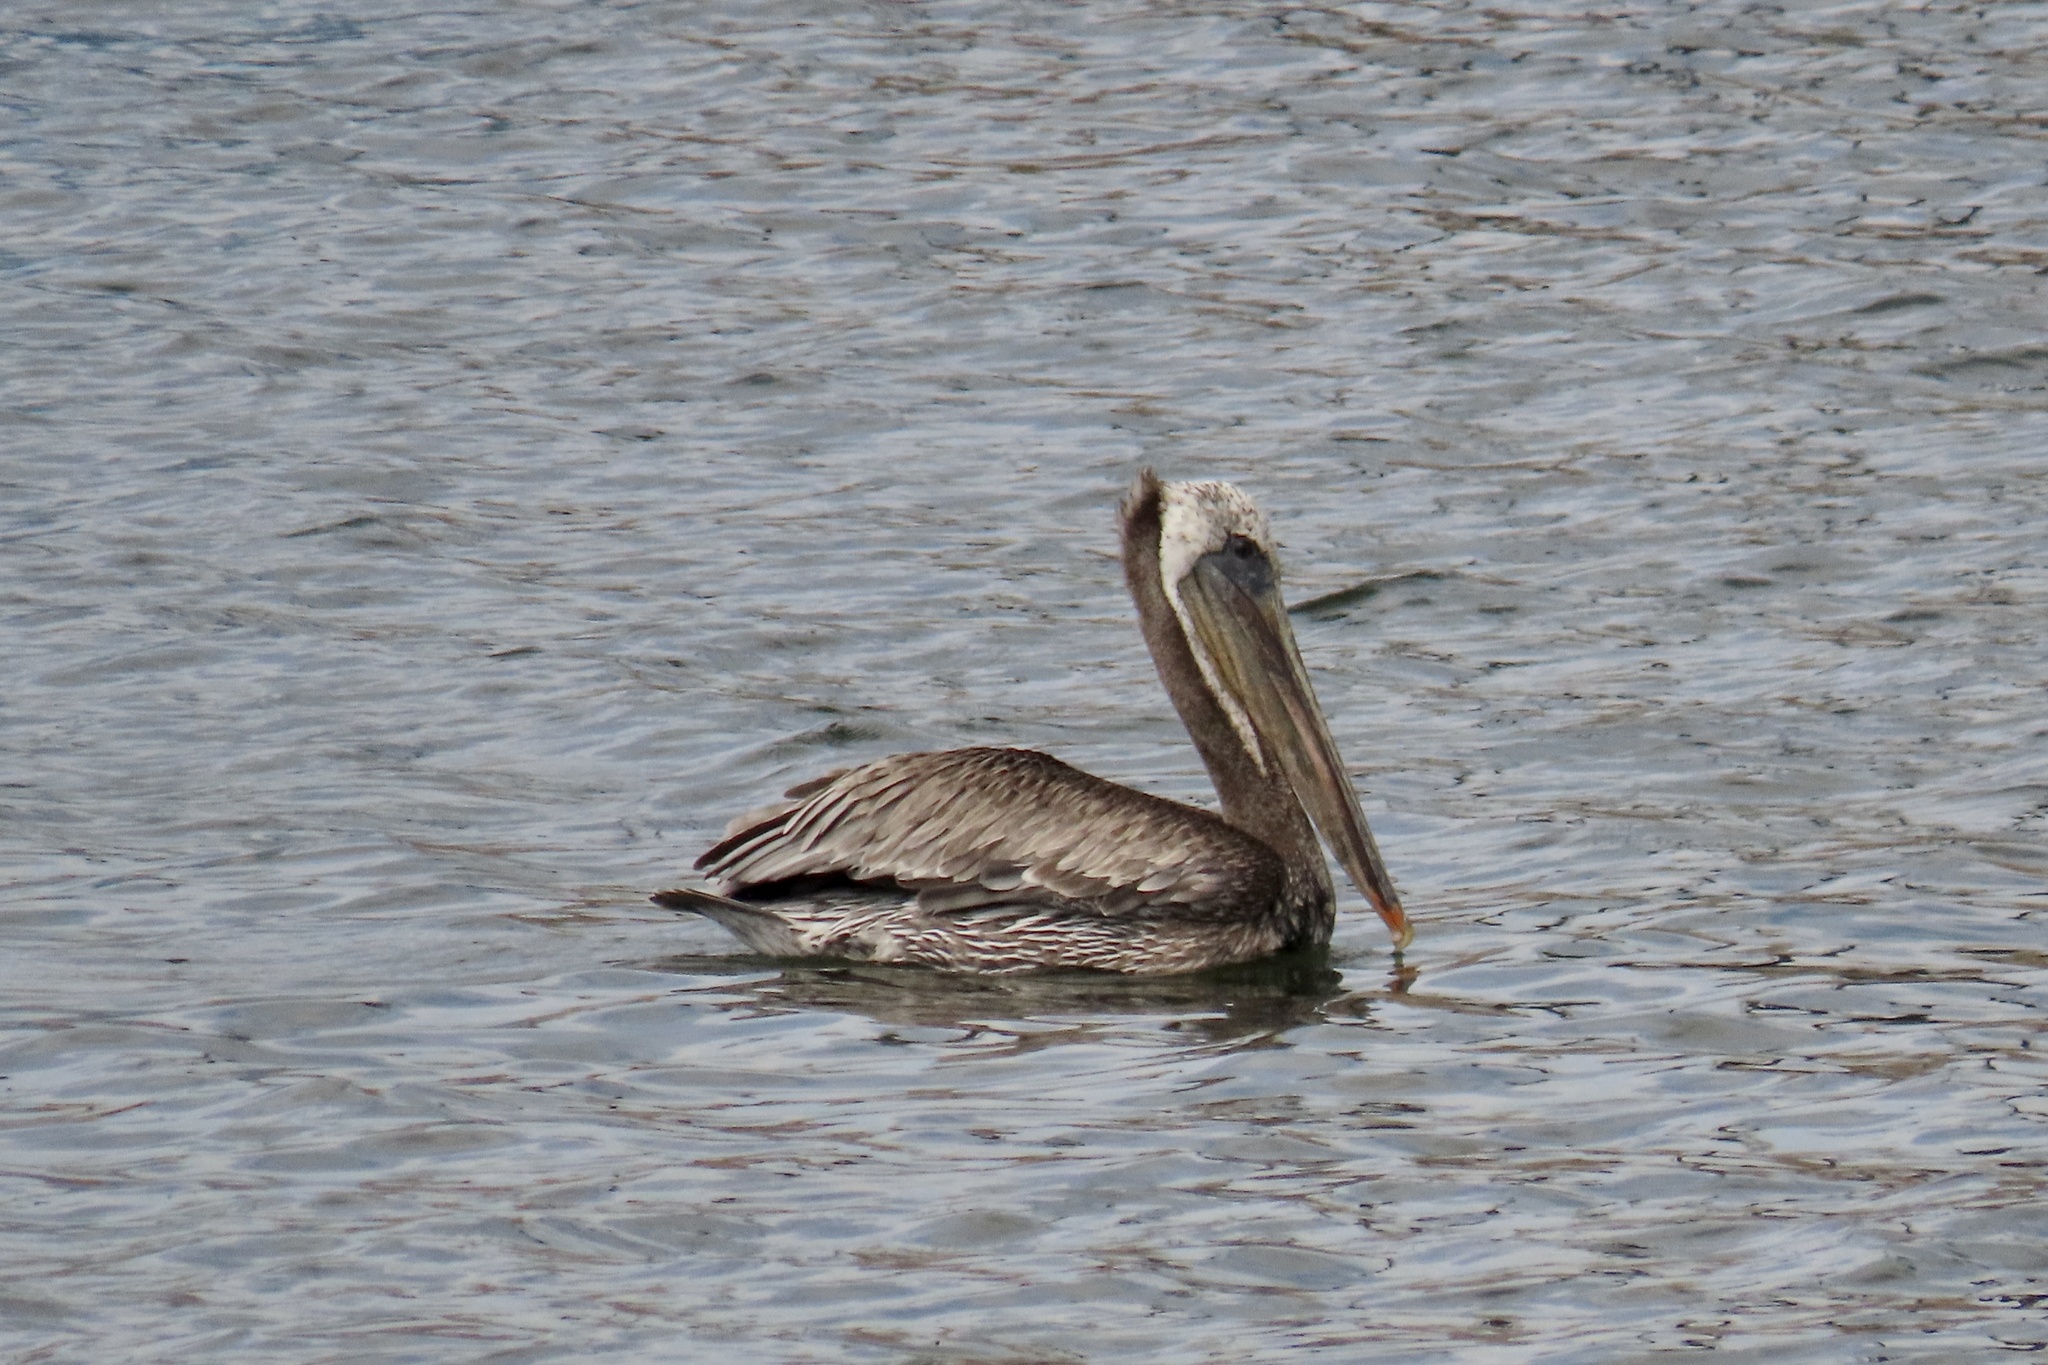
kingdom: Animalia
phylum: Chordata
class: Aves
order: Pelecaniformes
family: Pelecanidae
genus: Pelecanus
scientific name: Pelecanus occidentalis
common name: Brown pelican
